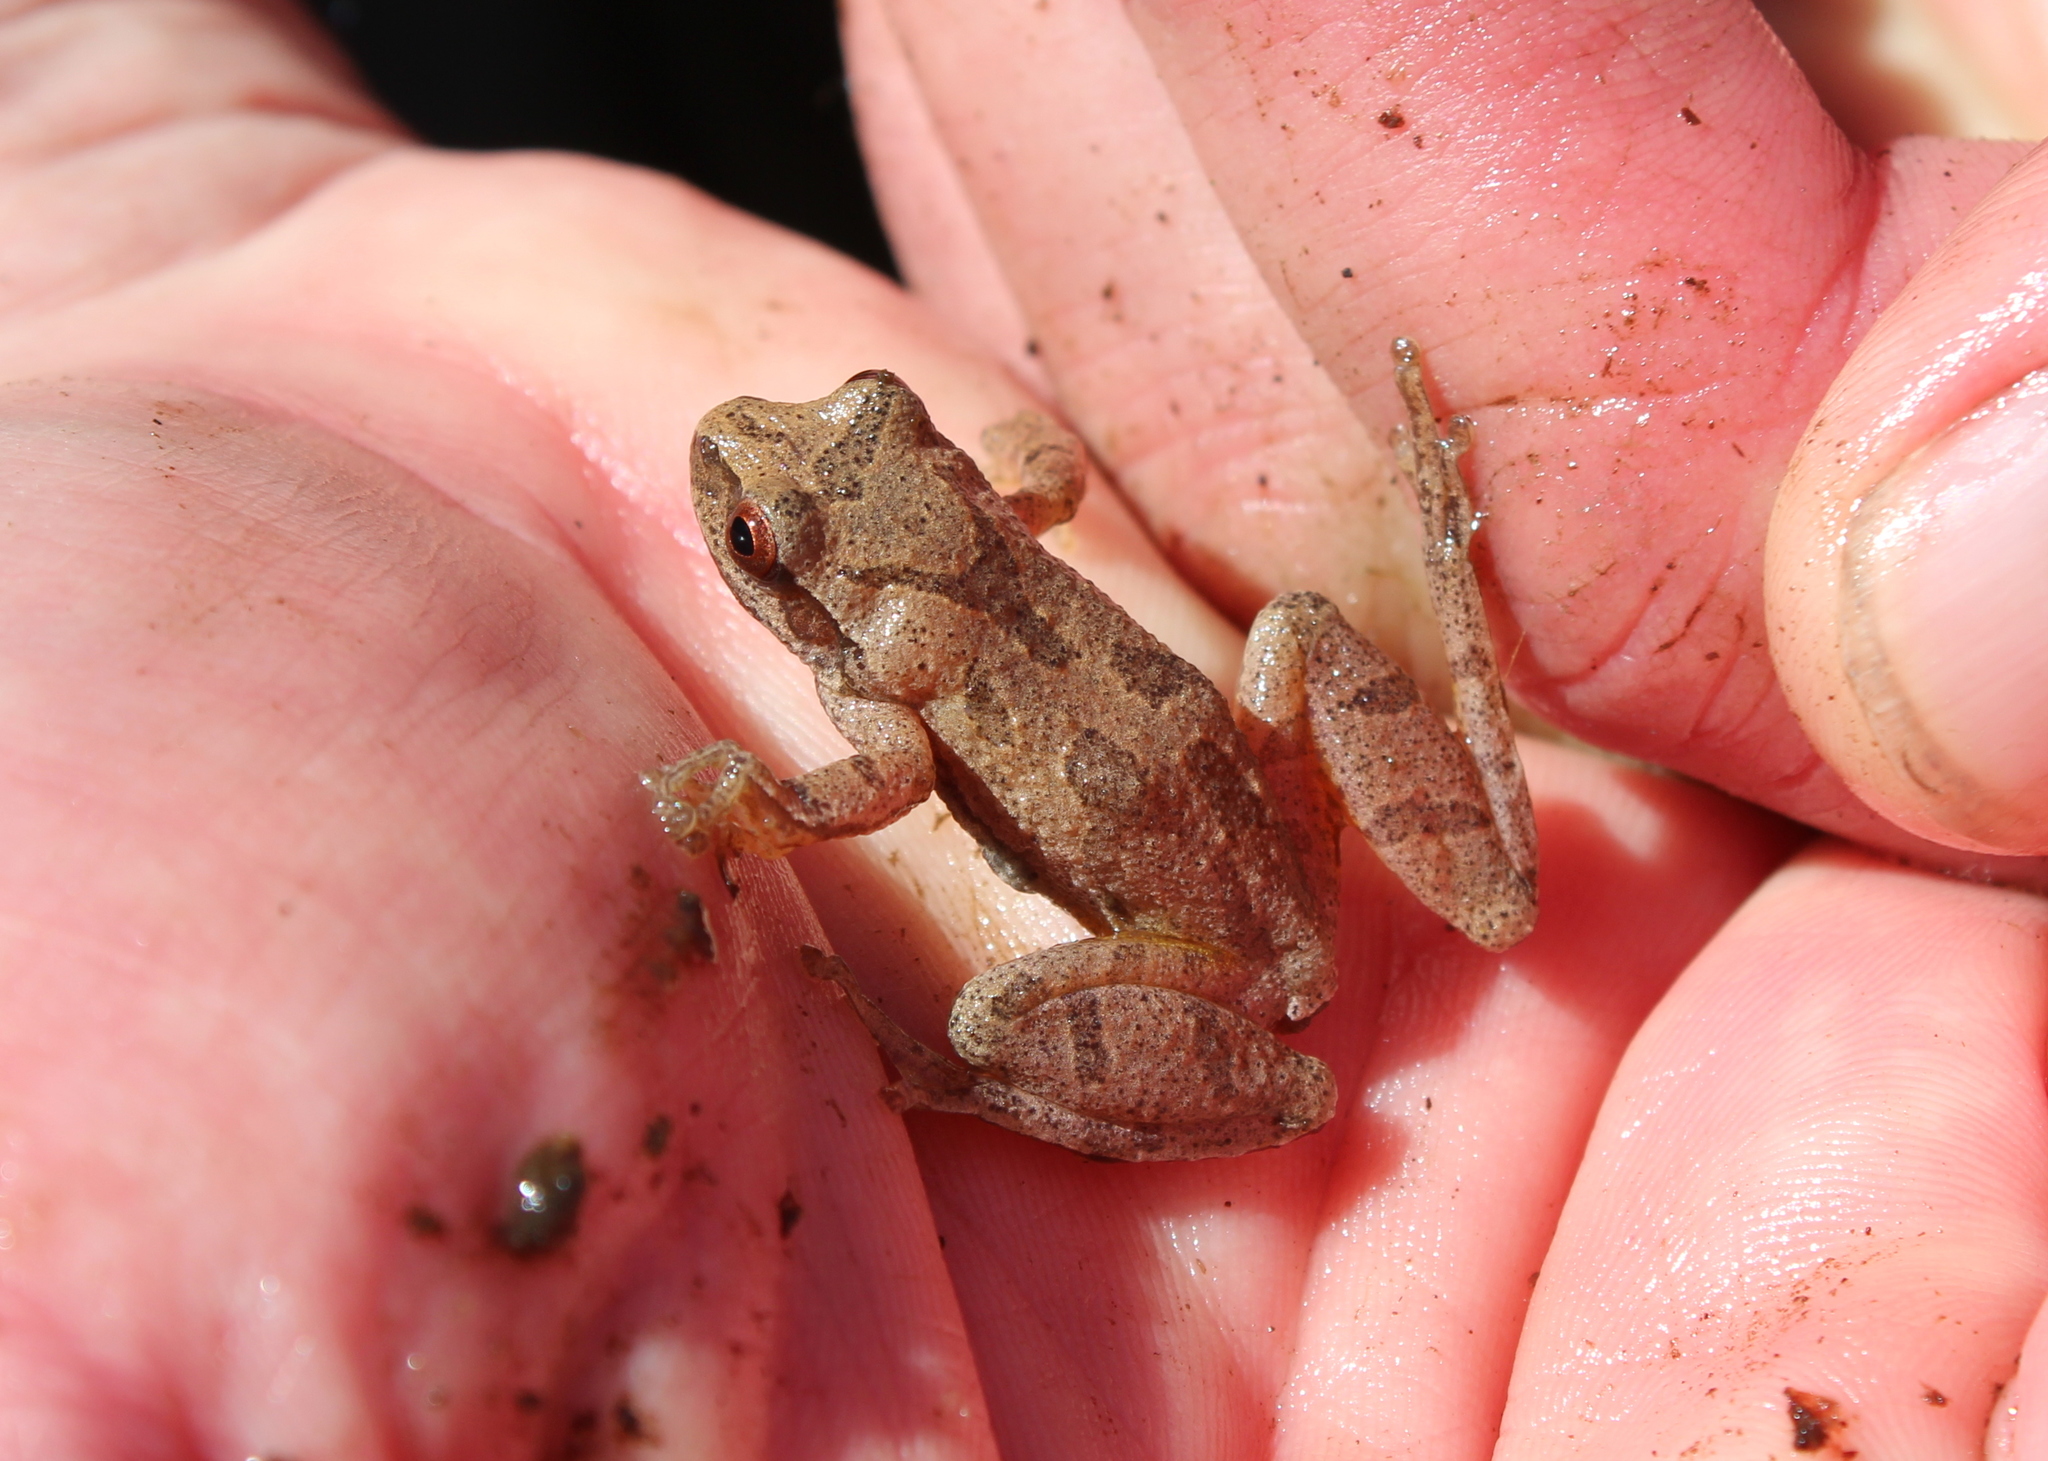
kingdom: Animalia
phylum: Chordata
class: Amphibia
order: Anura
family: Hylidae
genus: Pseudacris
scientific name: Pseudacris crucifer
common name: Spring peeper
